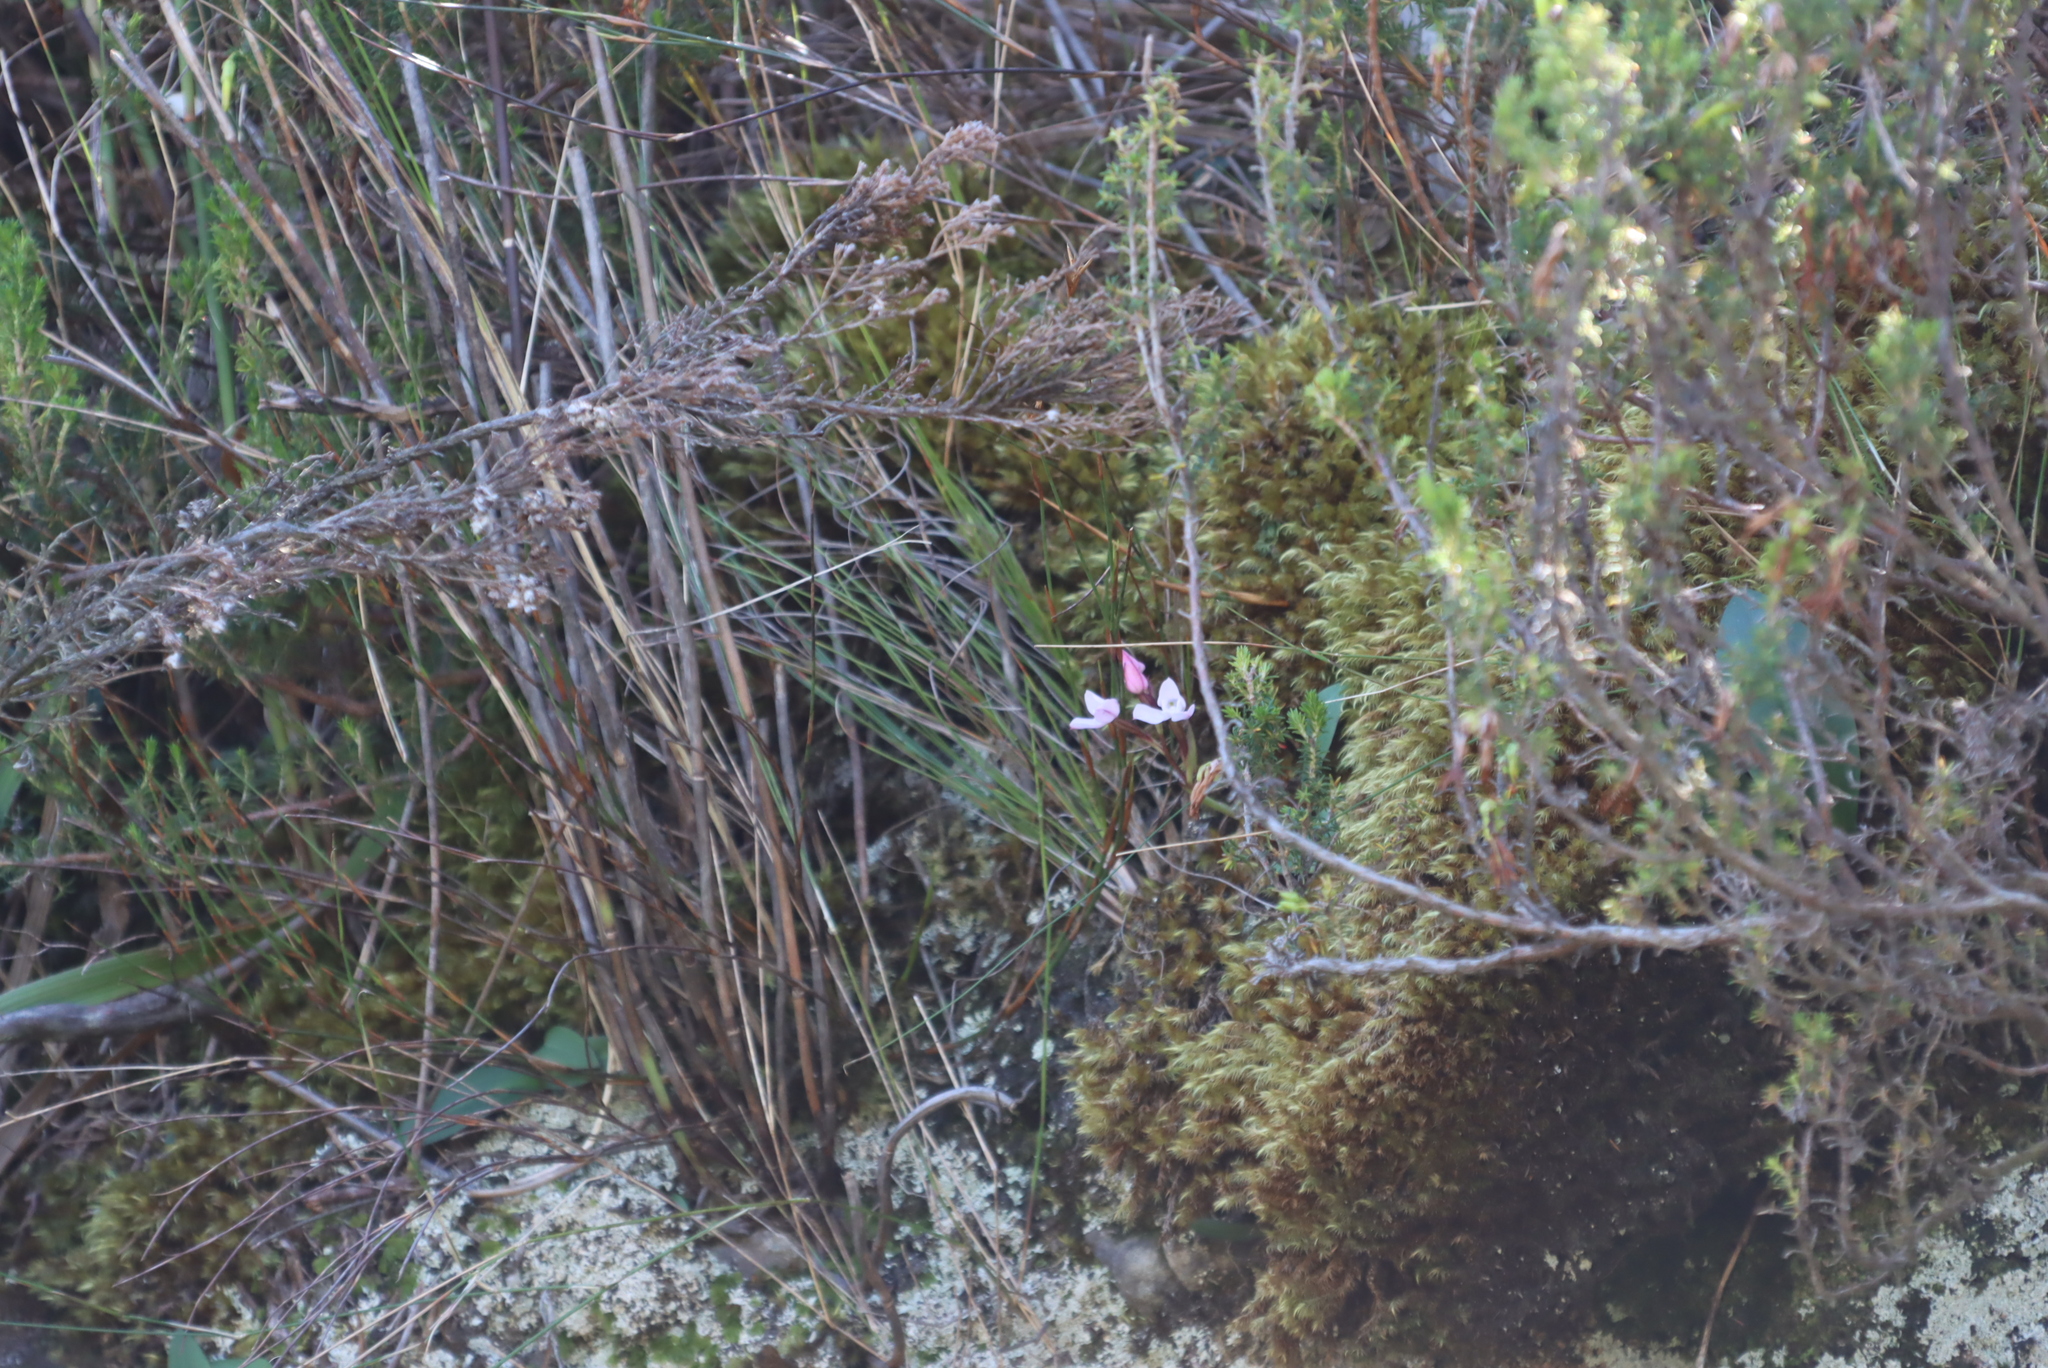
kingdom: Plantae
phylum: Tracheophyta
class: Liliopsida
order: Asparagales
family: Orchidaceae
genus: Disa
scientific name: Disa rosea
